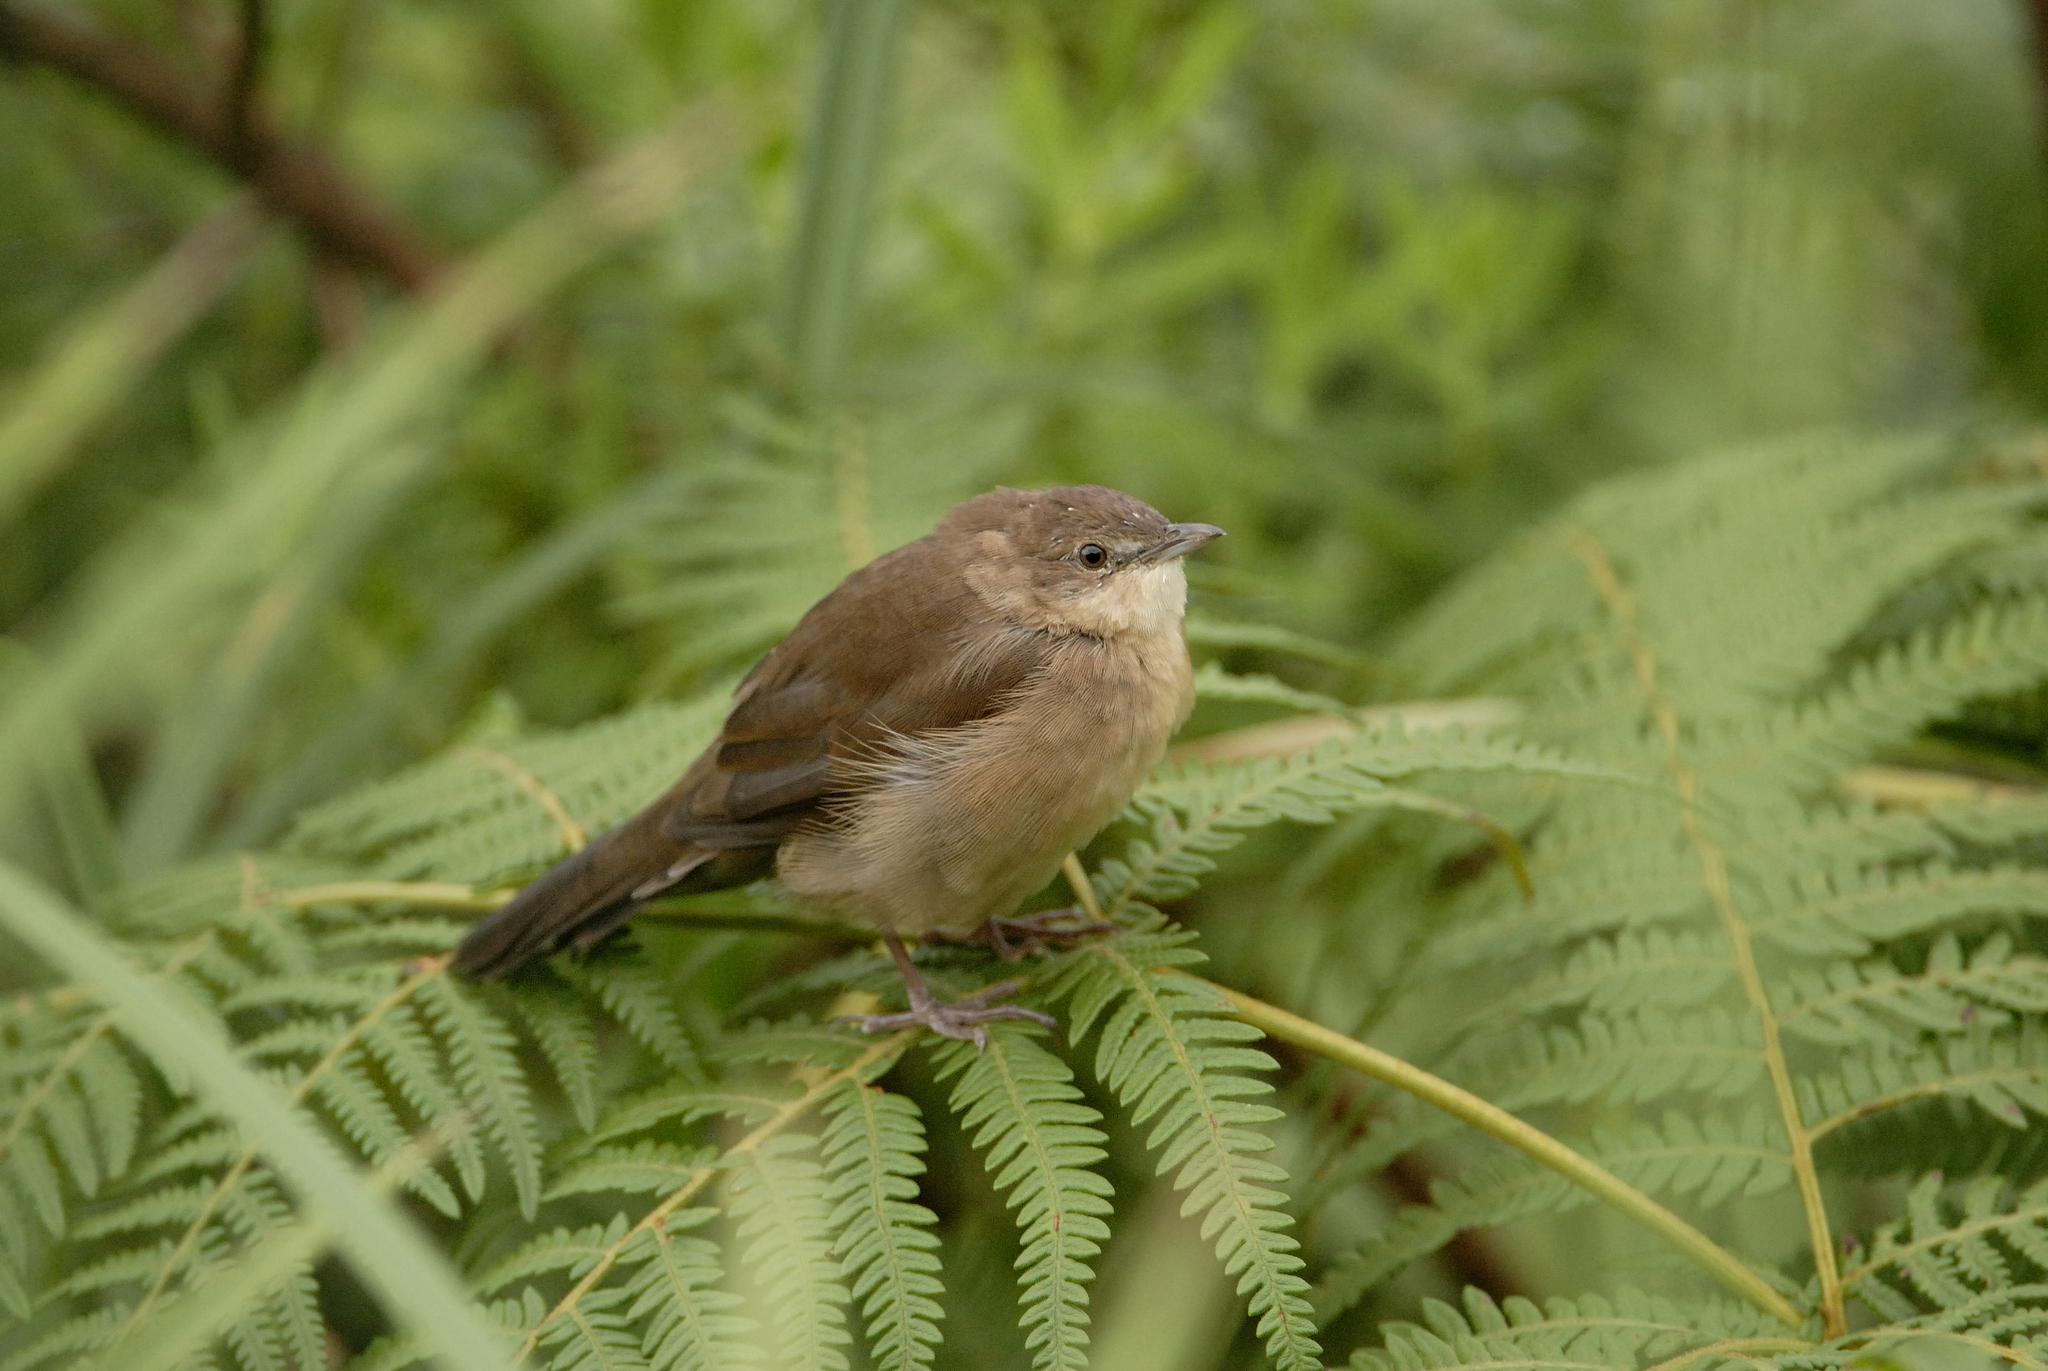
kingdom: Animalia
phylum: Chordata
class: Aves
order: Passeriformes
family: Locustellidae
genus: Schoenicola
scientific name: Schoenicola platyurus
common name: Broad-tailed grassbird
